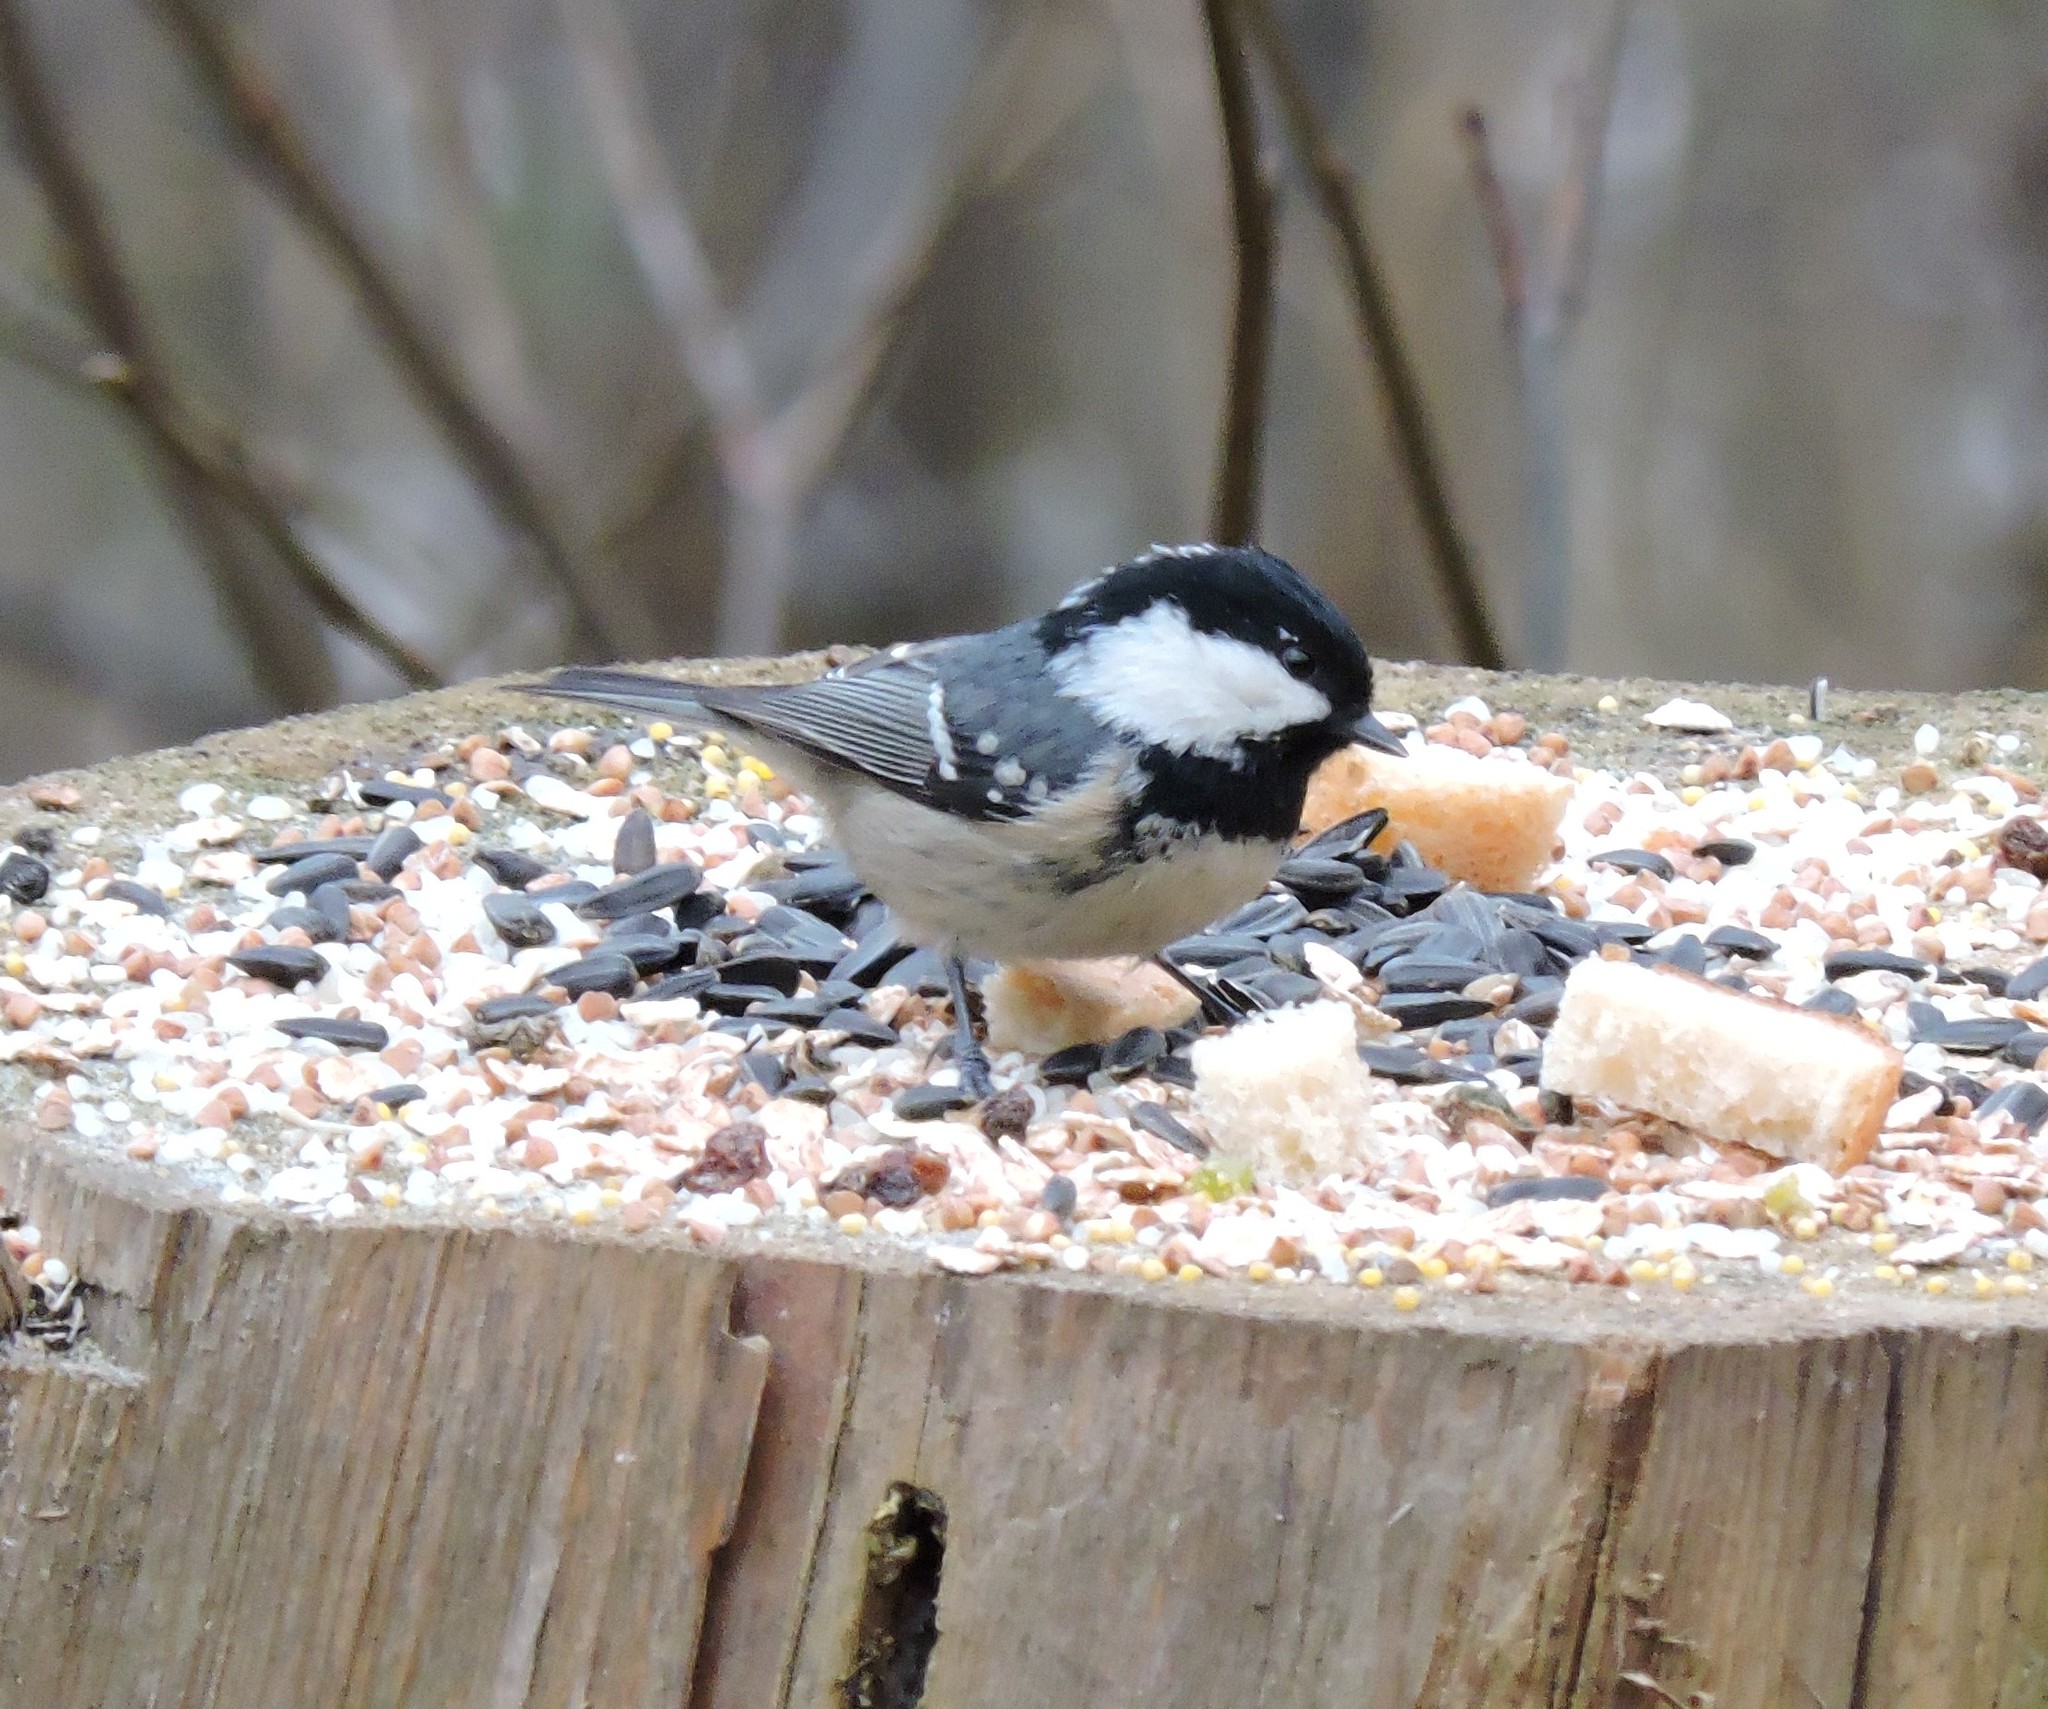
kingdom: Animalia
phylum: Chordata
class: Aves
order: Passeriformes
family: Paridae
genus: Periparus
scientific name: Periparus ater
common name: Coal tit
